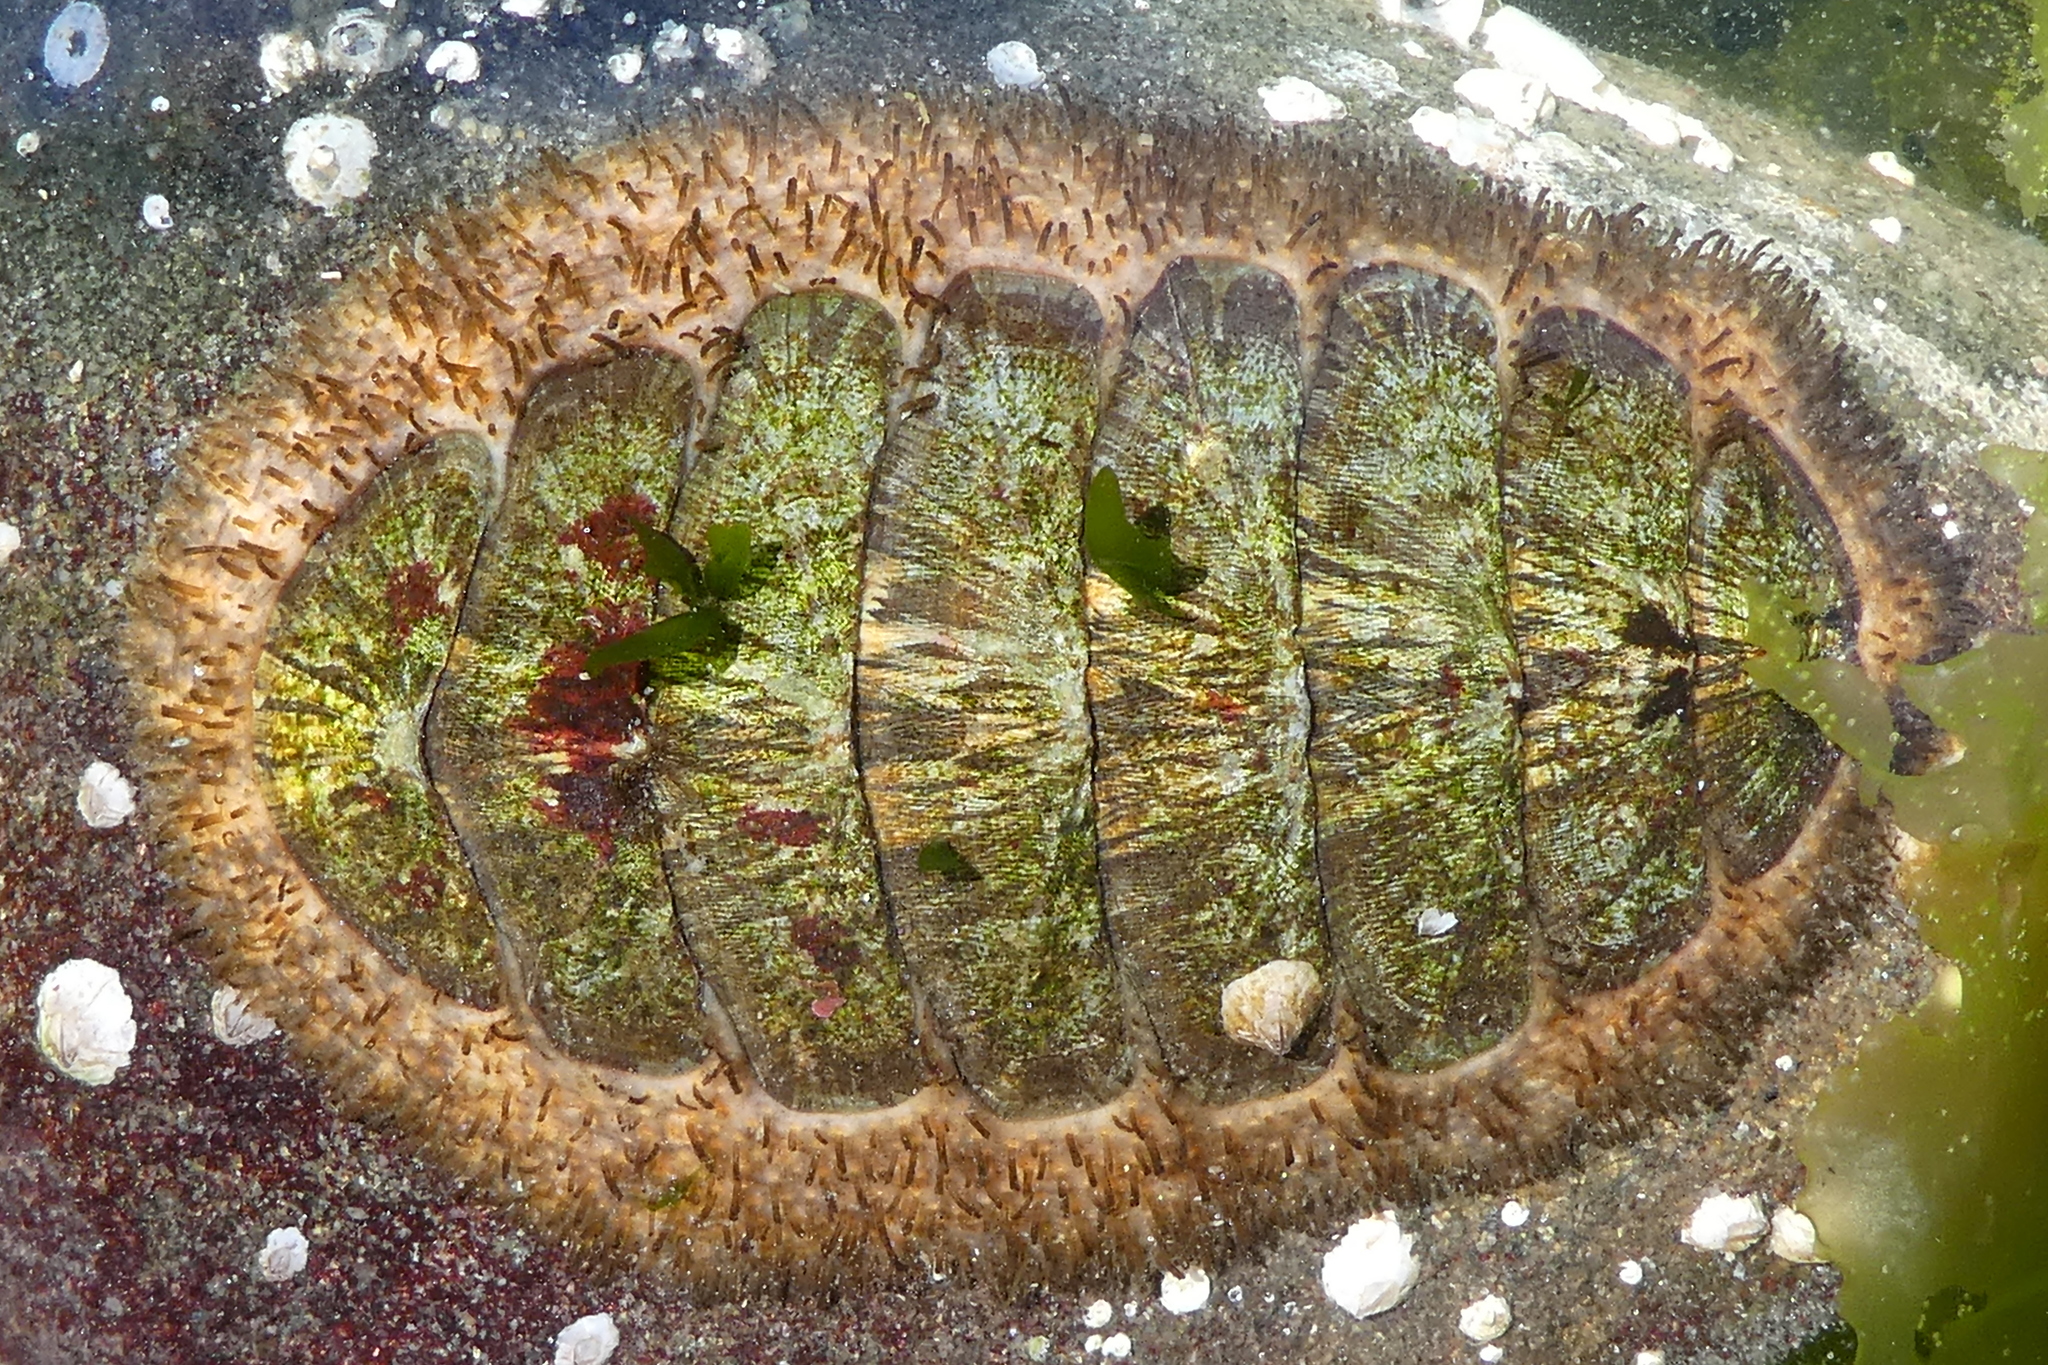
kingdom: Animalia
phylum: Mollusca
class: Polyplacophora
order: Chitonida
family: Mopaliidae
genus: Mopalia
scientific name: Mopalia lignosa
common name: Woody chiton
